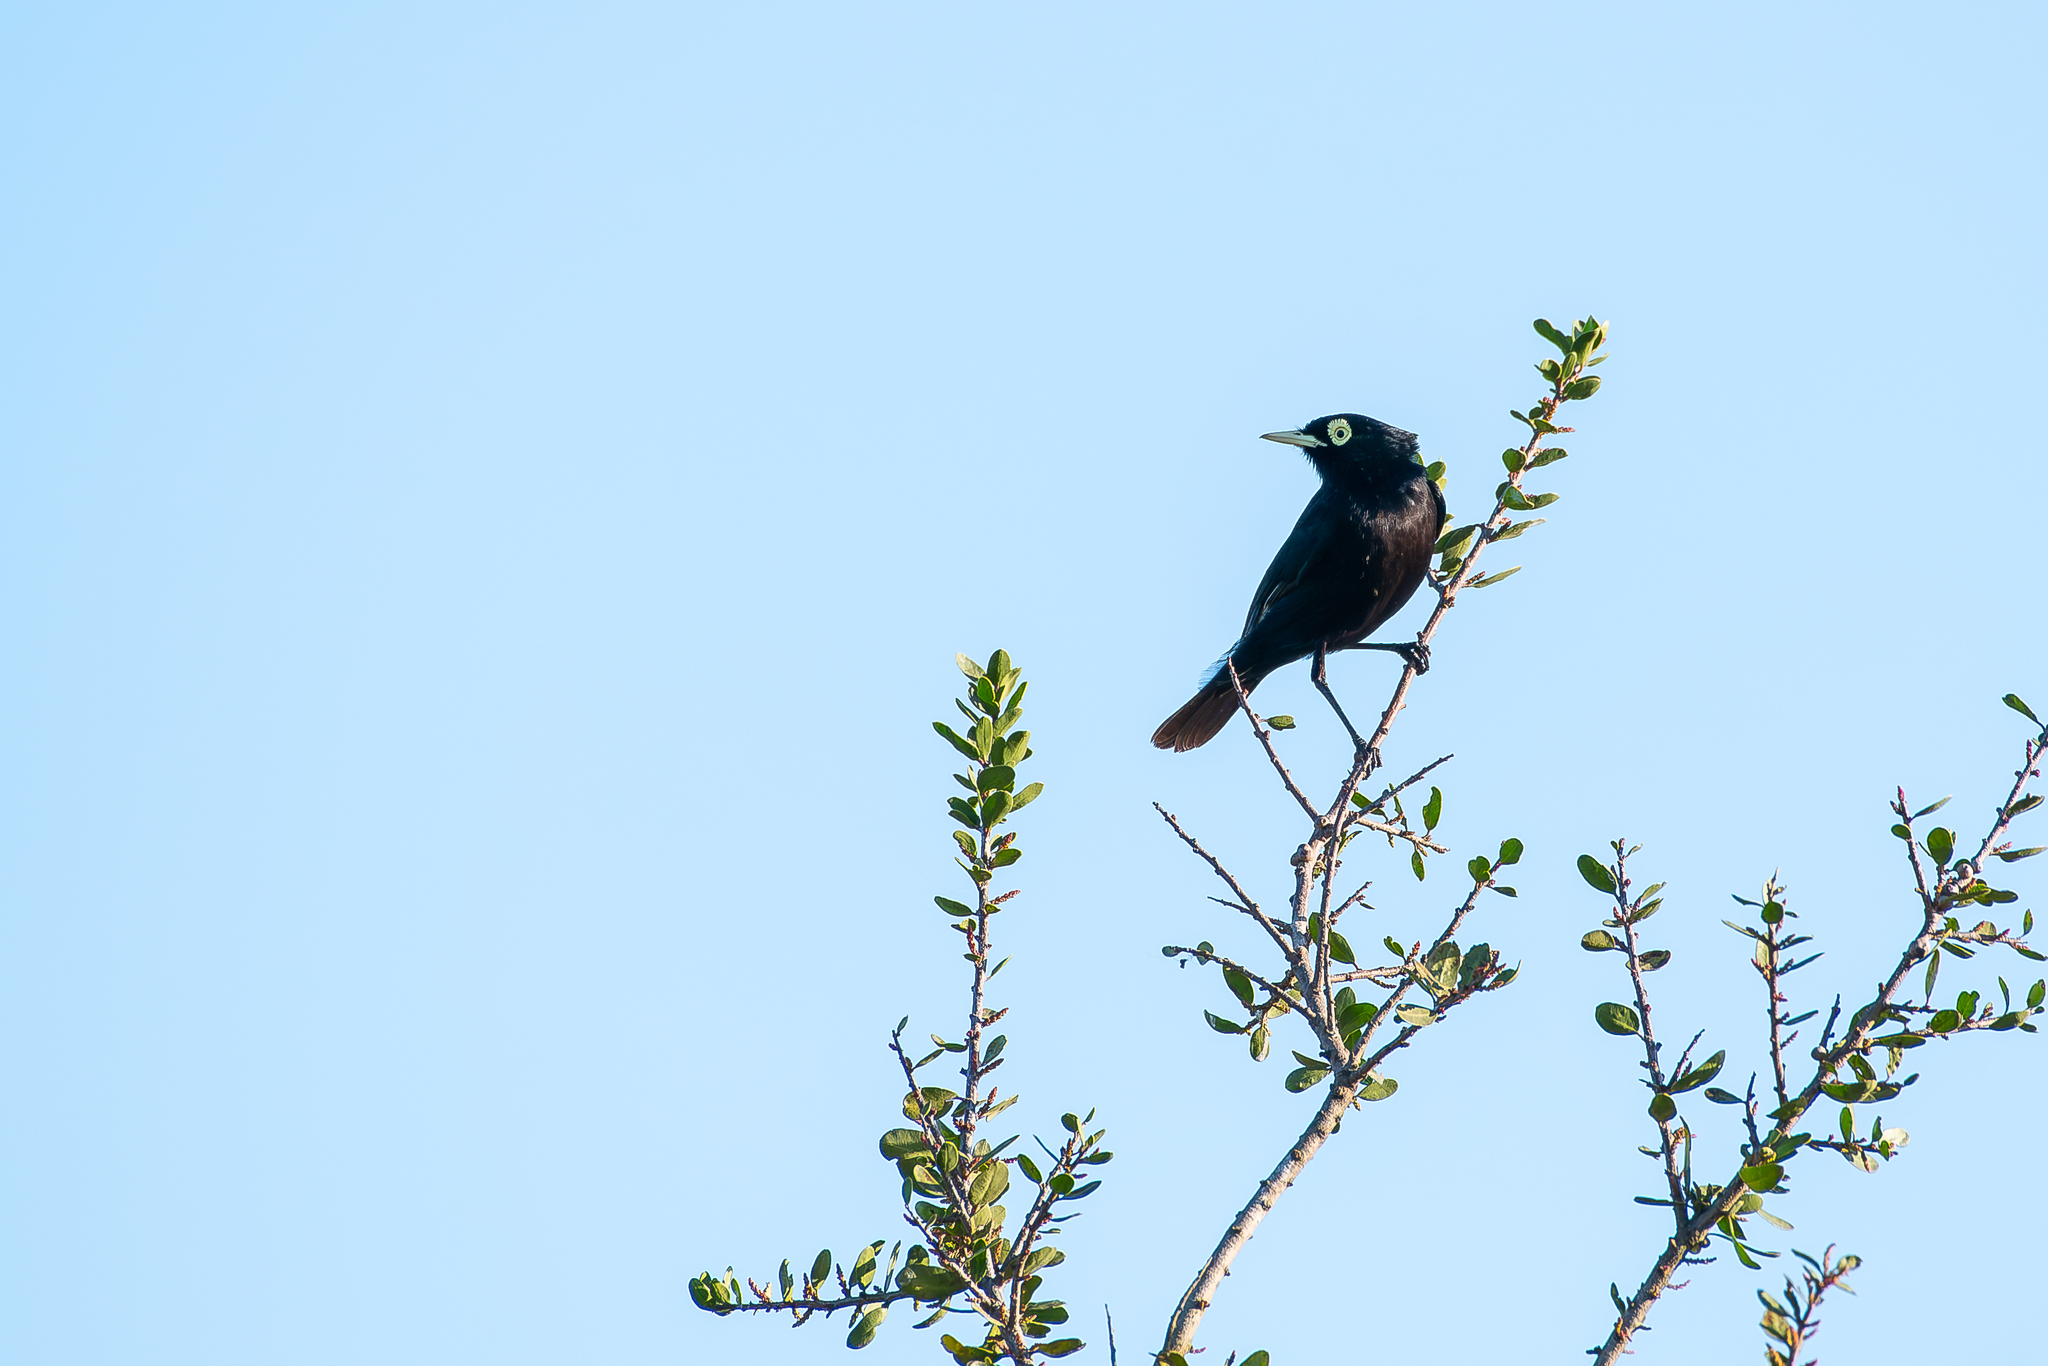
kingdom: Animalia
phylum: Chordata
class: Aves
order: Passeriformes
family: Tyrannidae
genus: Hymenops
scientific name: Hymenops perspicillatus
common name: Spectacled tyrant
